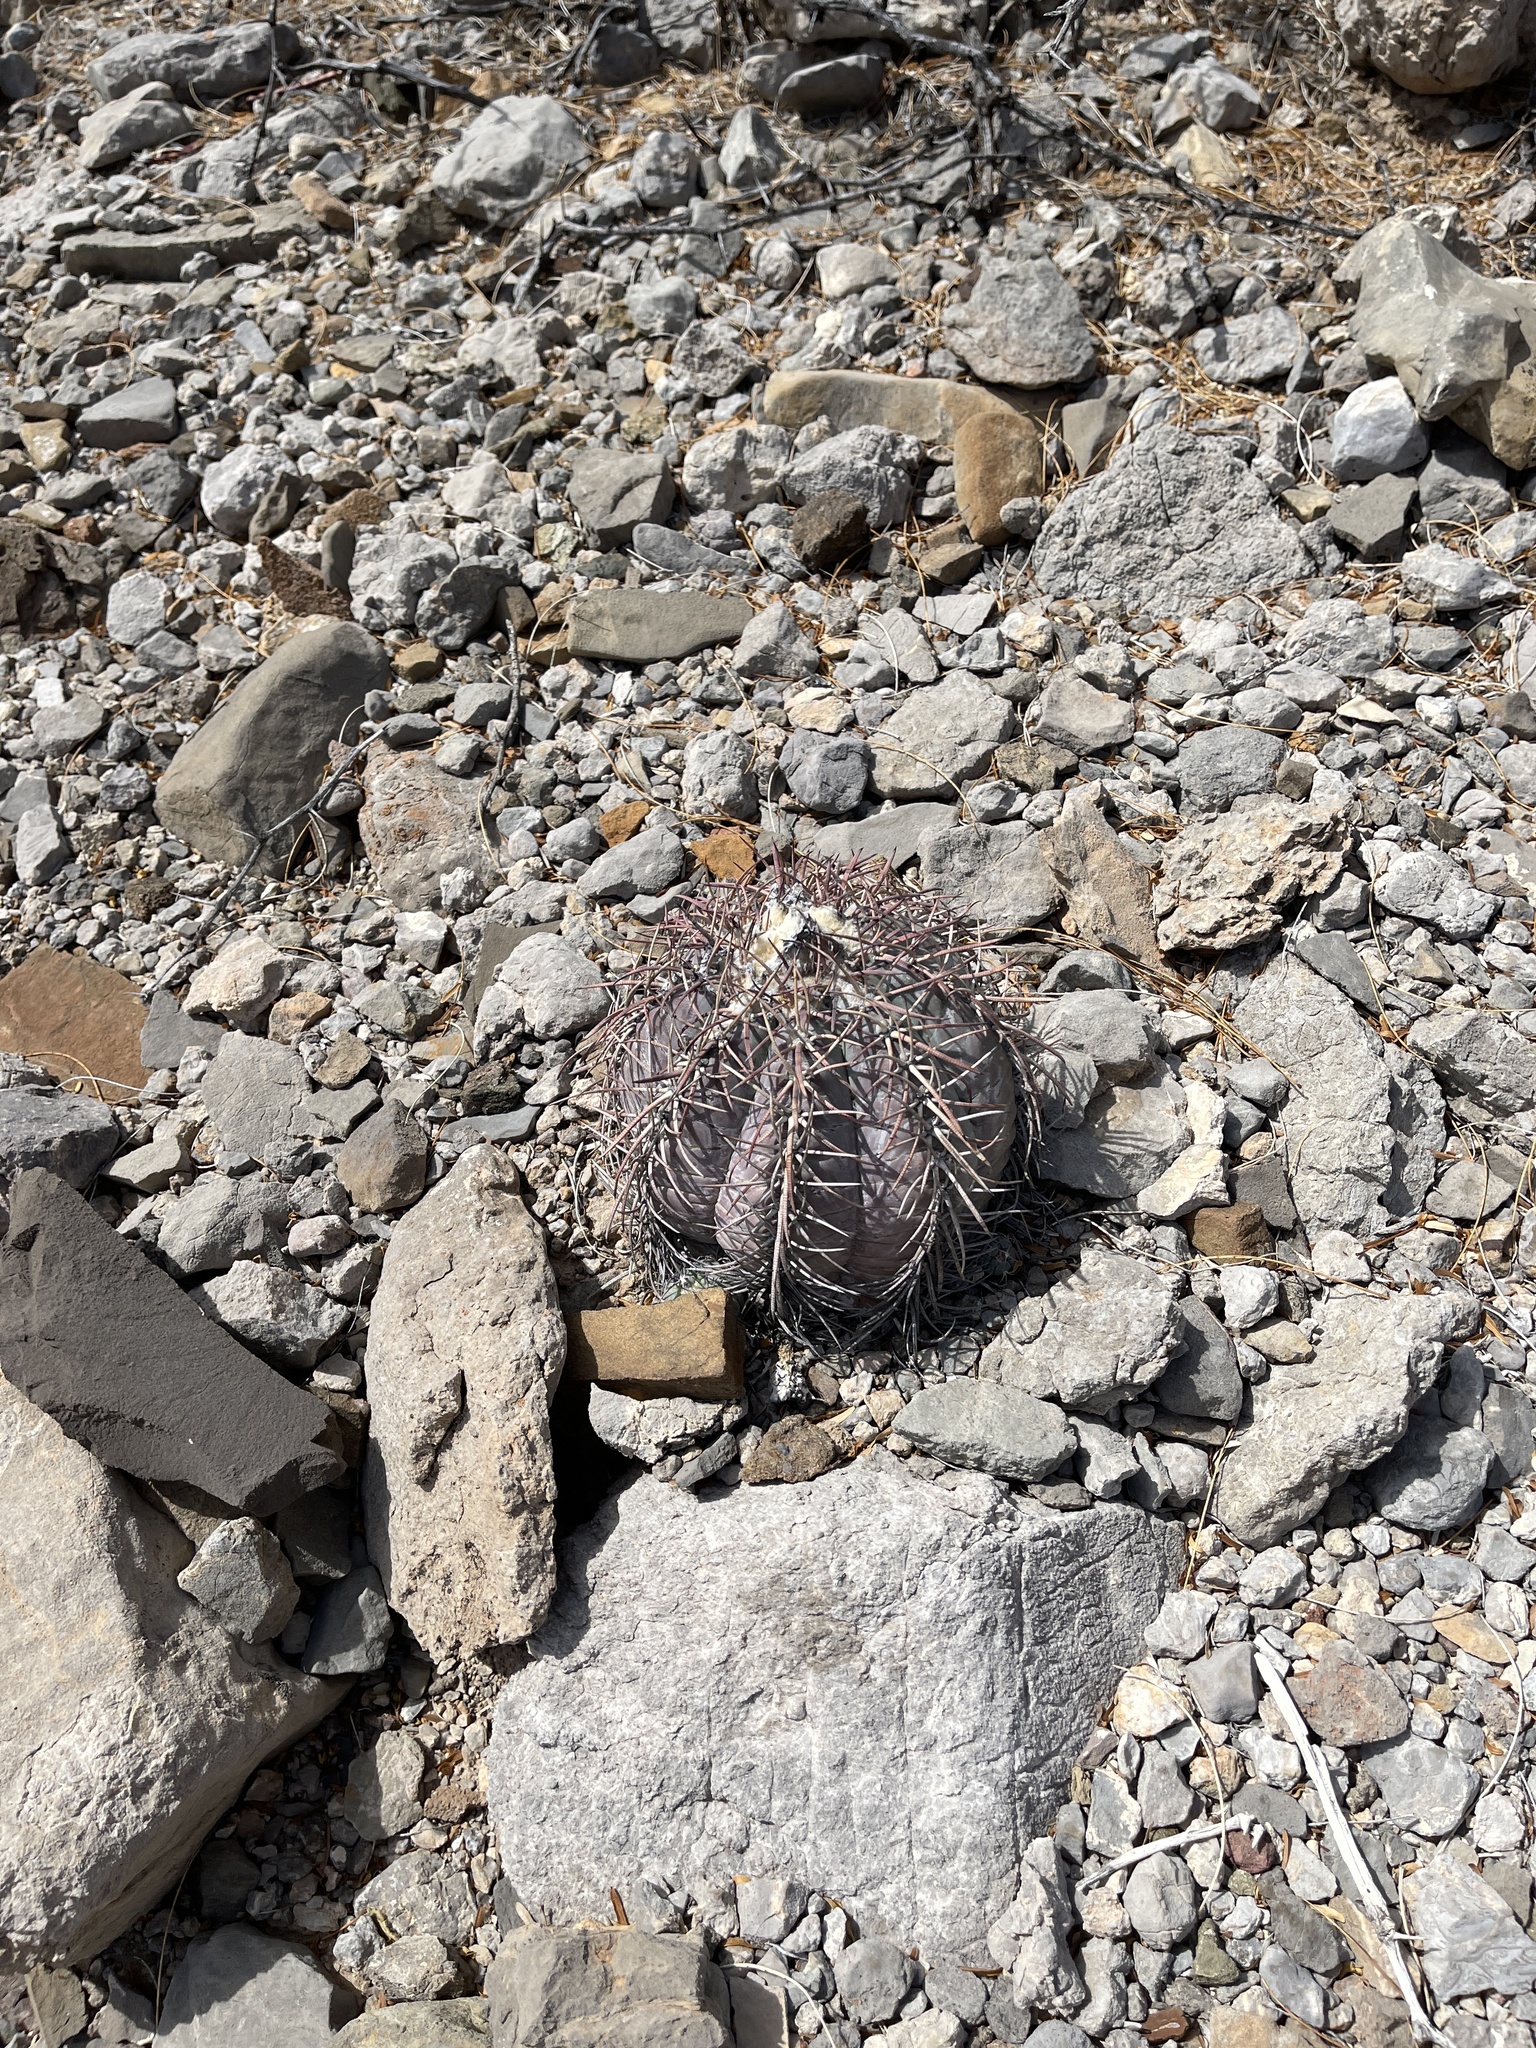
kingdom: Plantae
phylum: Tracheophyta
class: Magnoliopsida
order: Caryophyllales
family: Cactaceae
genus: Echinocactus
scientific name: Echinocactus horizonthalonius
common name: Devilshead
